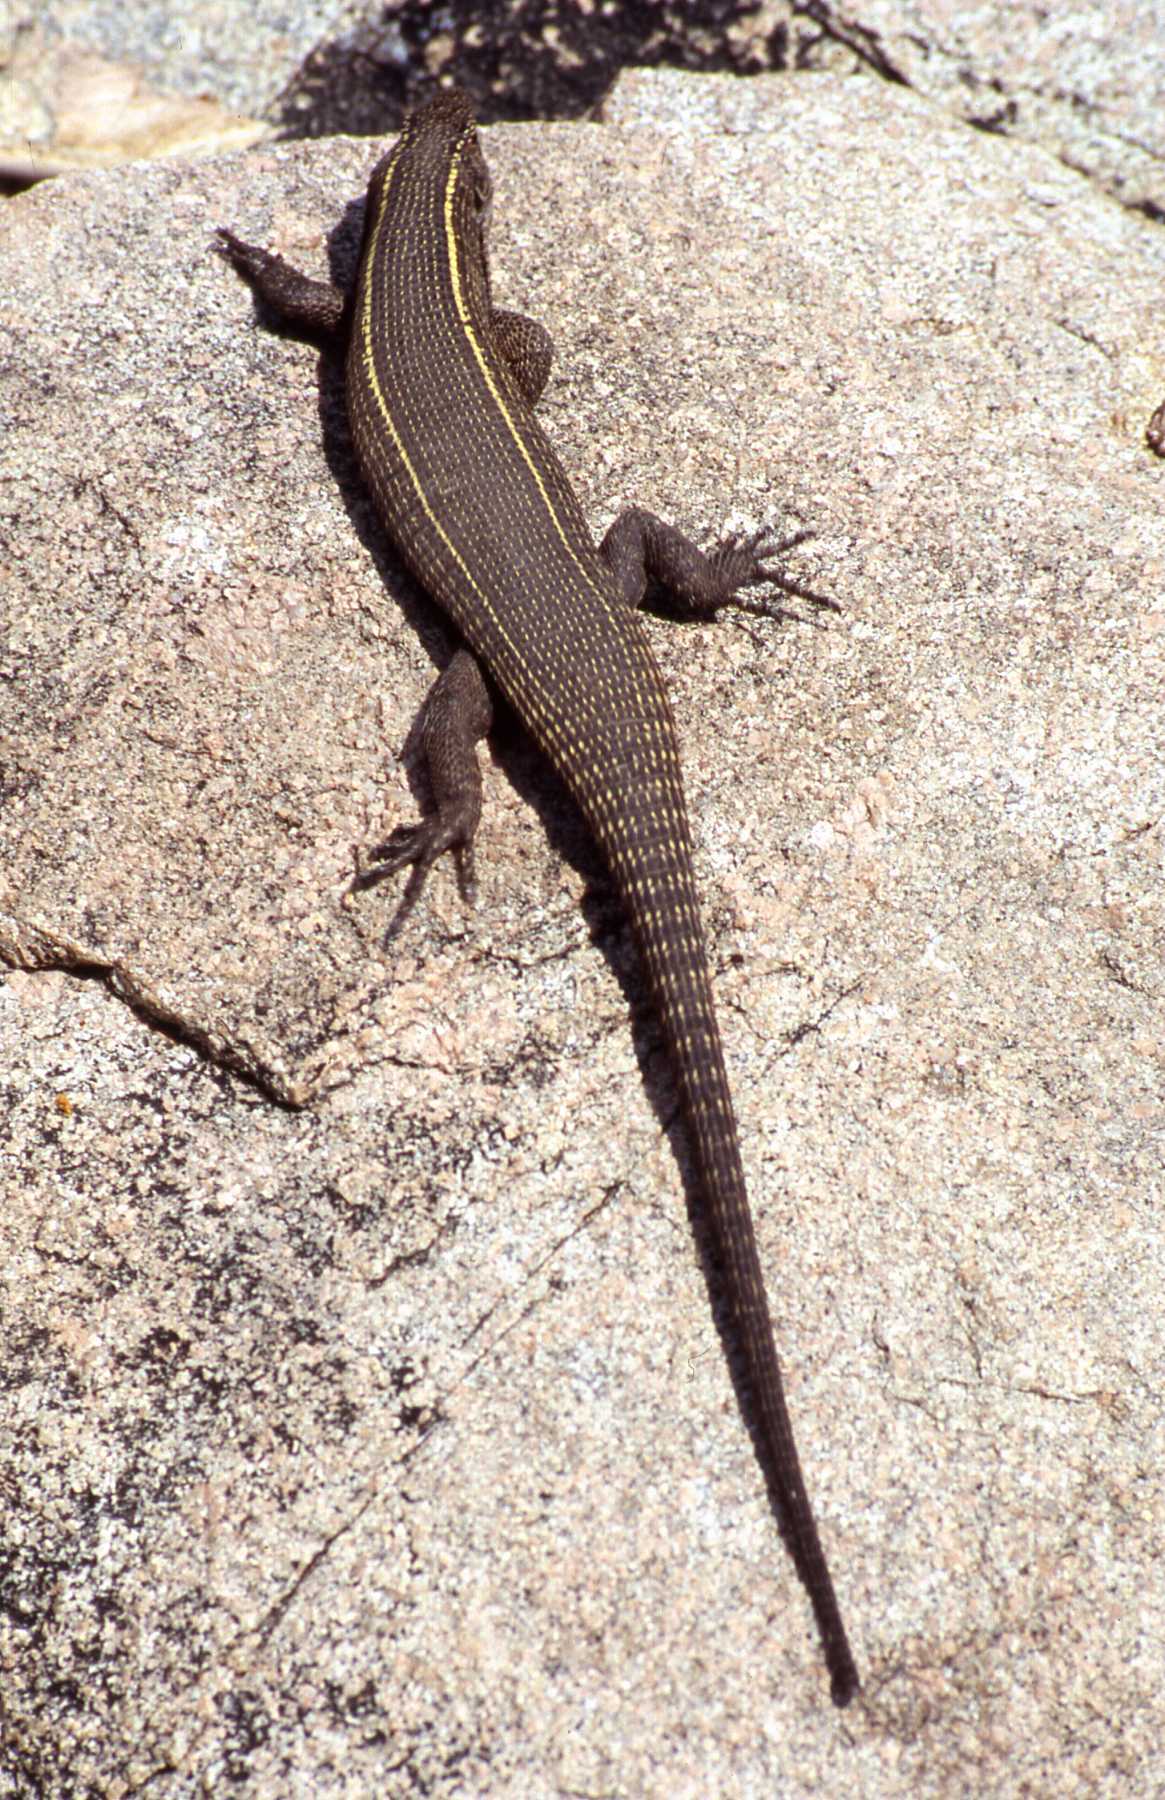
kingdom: Animalia
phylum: Chordata
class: Squamata
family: Gerrhosauridae
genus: Matobosaurus
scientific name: Matobosaurus validus
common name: Common giant plated lizard
